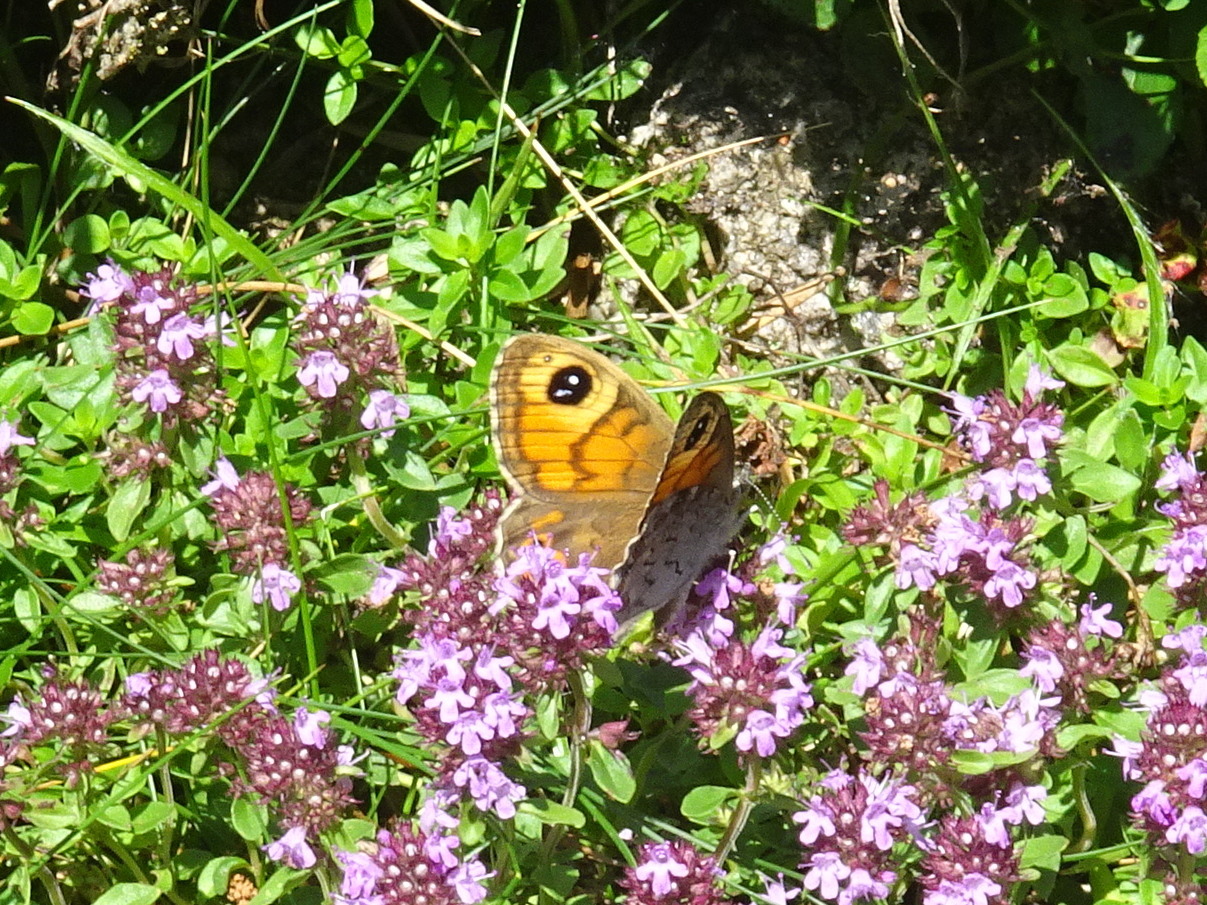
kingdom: Animalia
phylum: Arthropoda
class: Insecta
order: Lepidoptera
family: Nymphalidae
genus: Pararge
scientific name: Pararge Lasiommata maera
